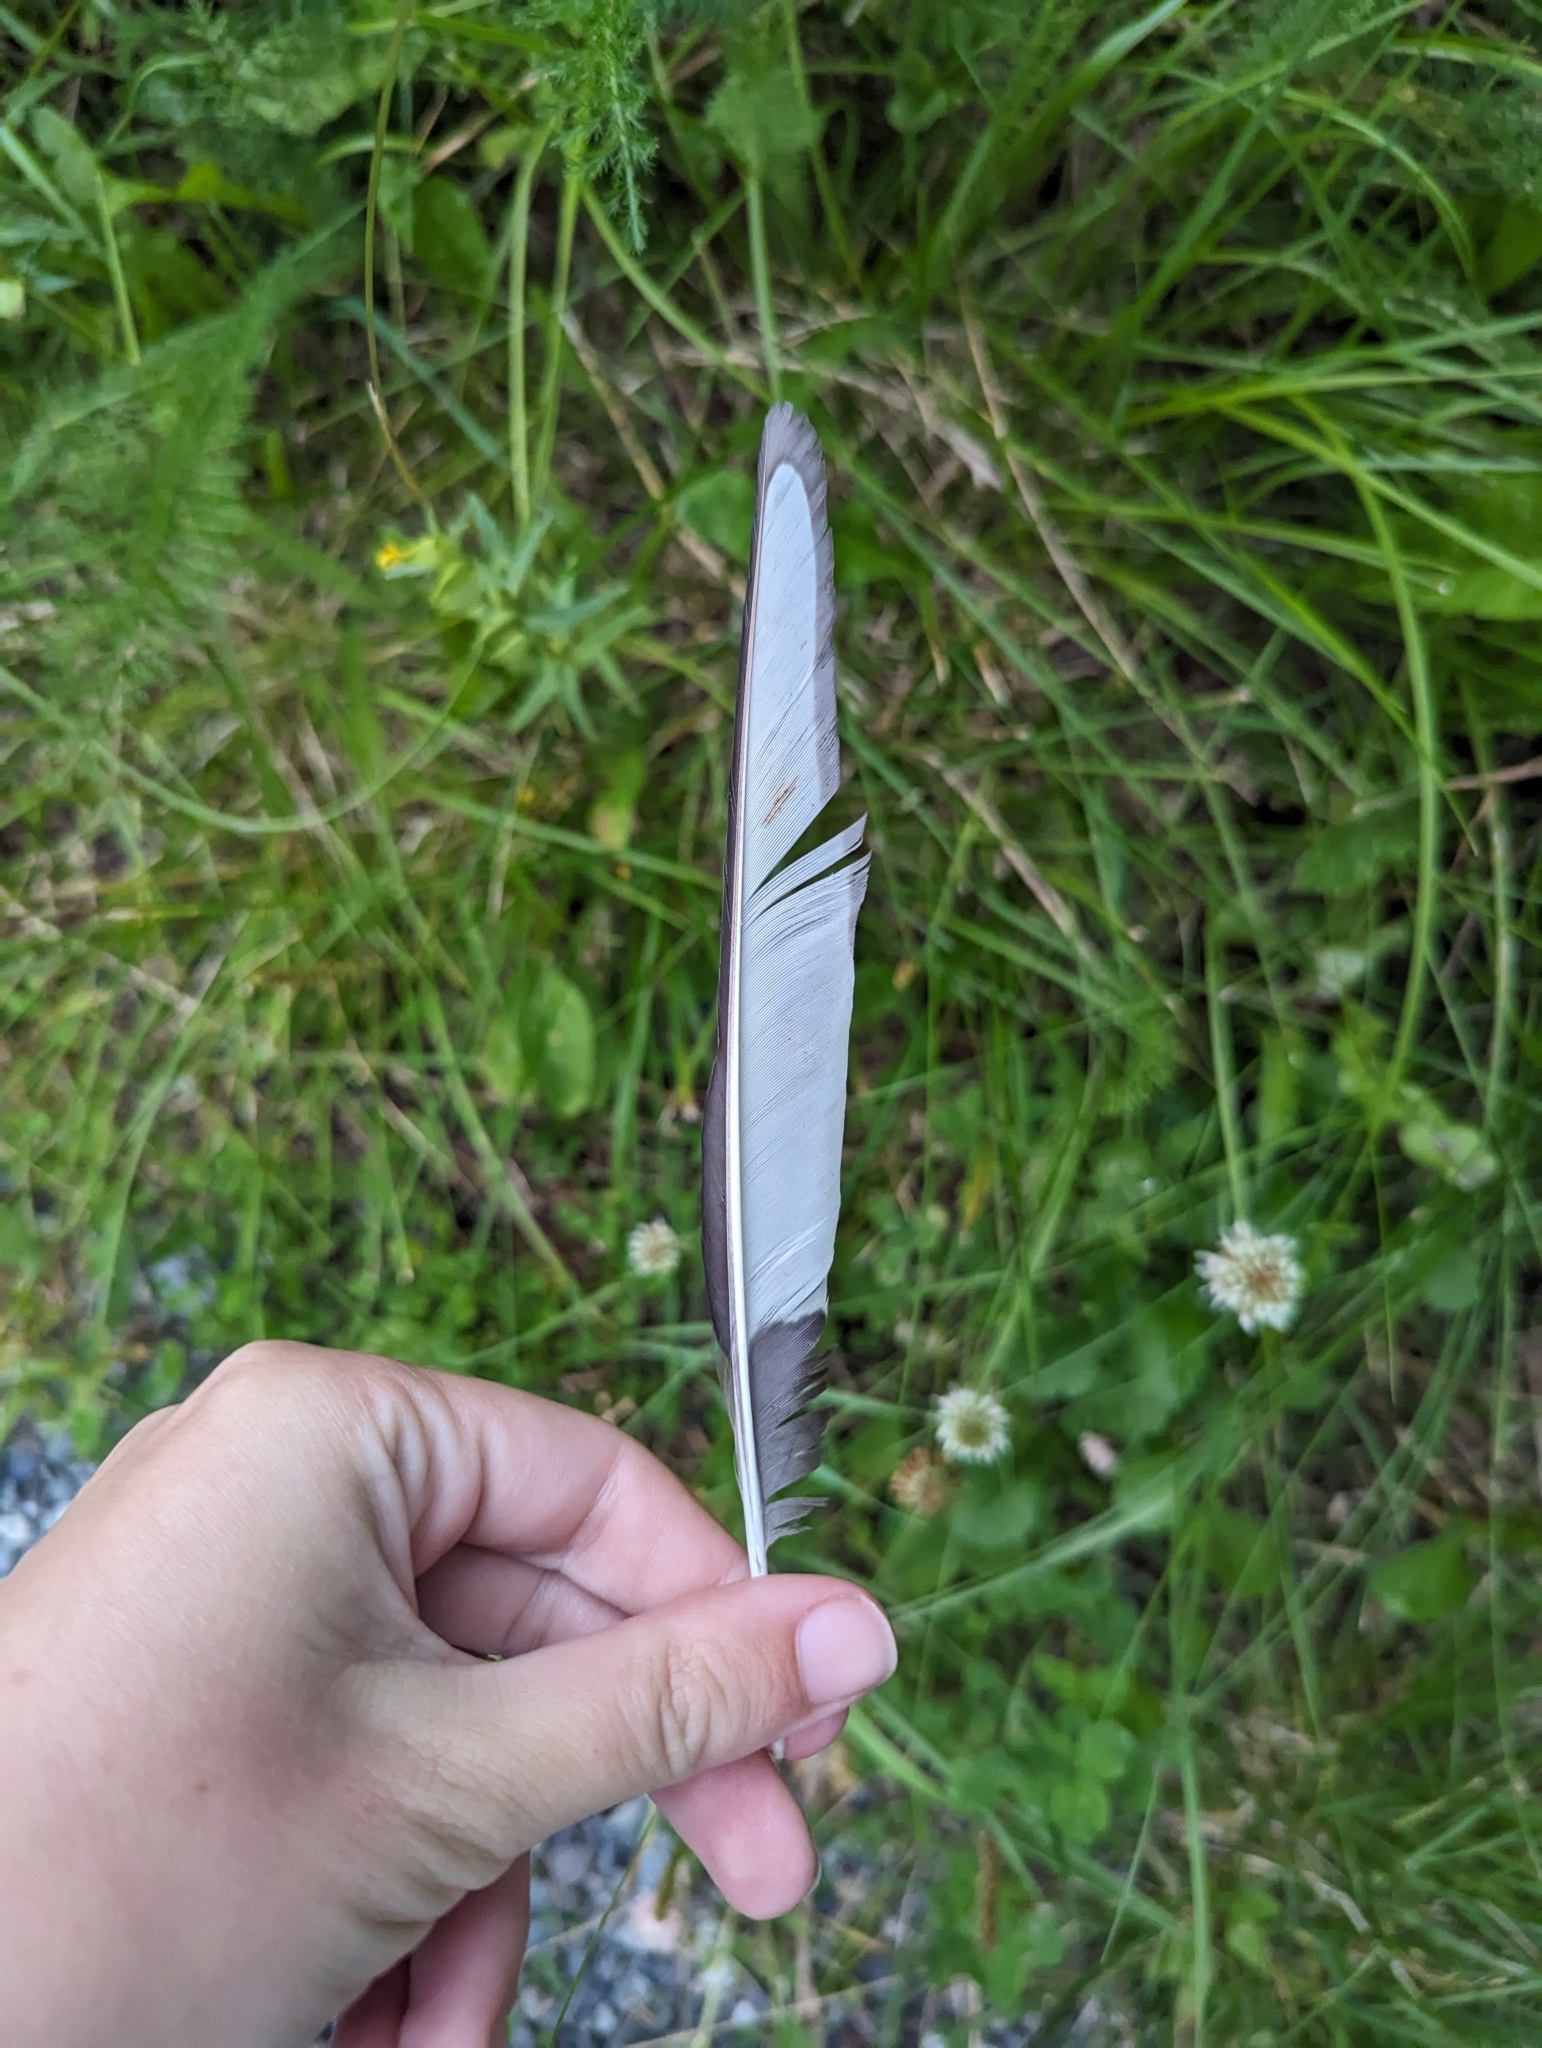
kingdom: Animalia
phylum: Chordata
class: Aves
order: Passeriformes
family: Corvidae
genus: Pica
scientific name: Pica hudsonia
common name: Black-billed magpie
